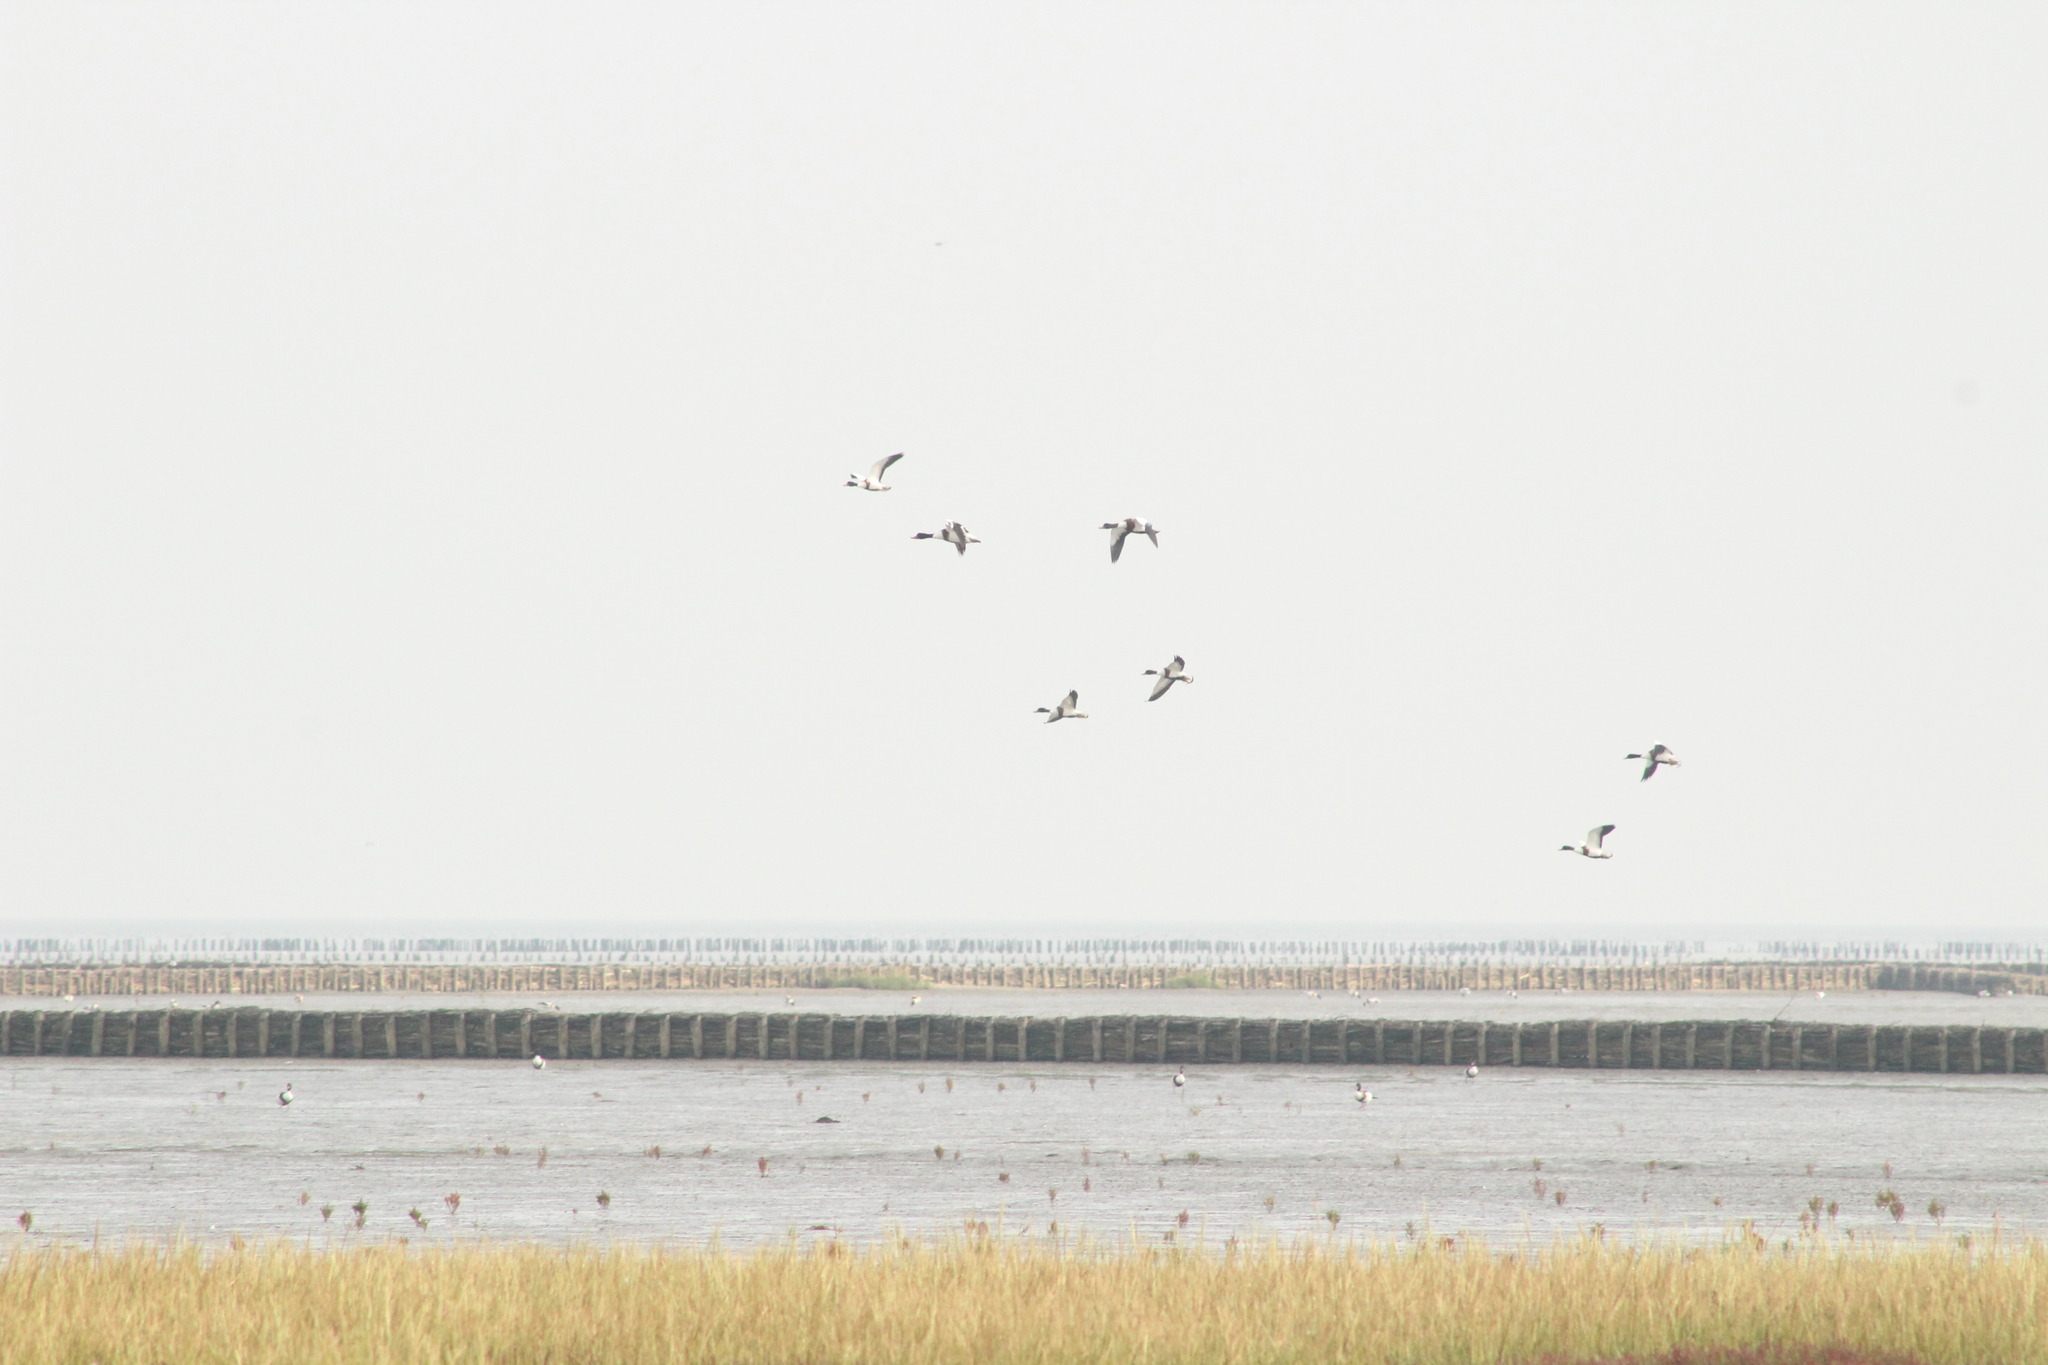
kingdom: Animalia
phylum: Chordata
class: Aves
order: Anseriformes
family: Anatidae
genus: Tadorna
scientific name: Tadorna tadorna
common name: Common shelduck
